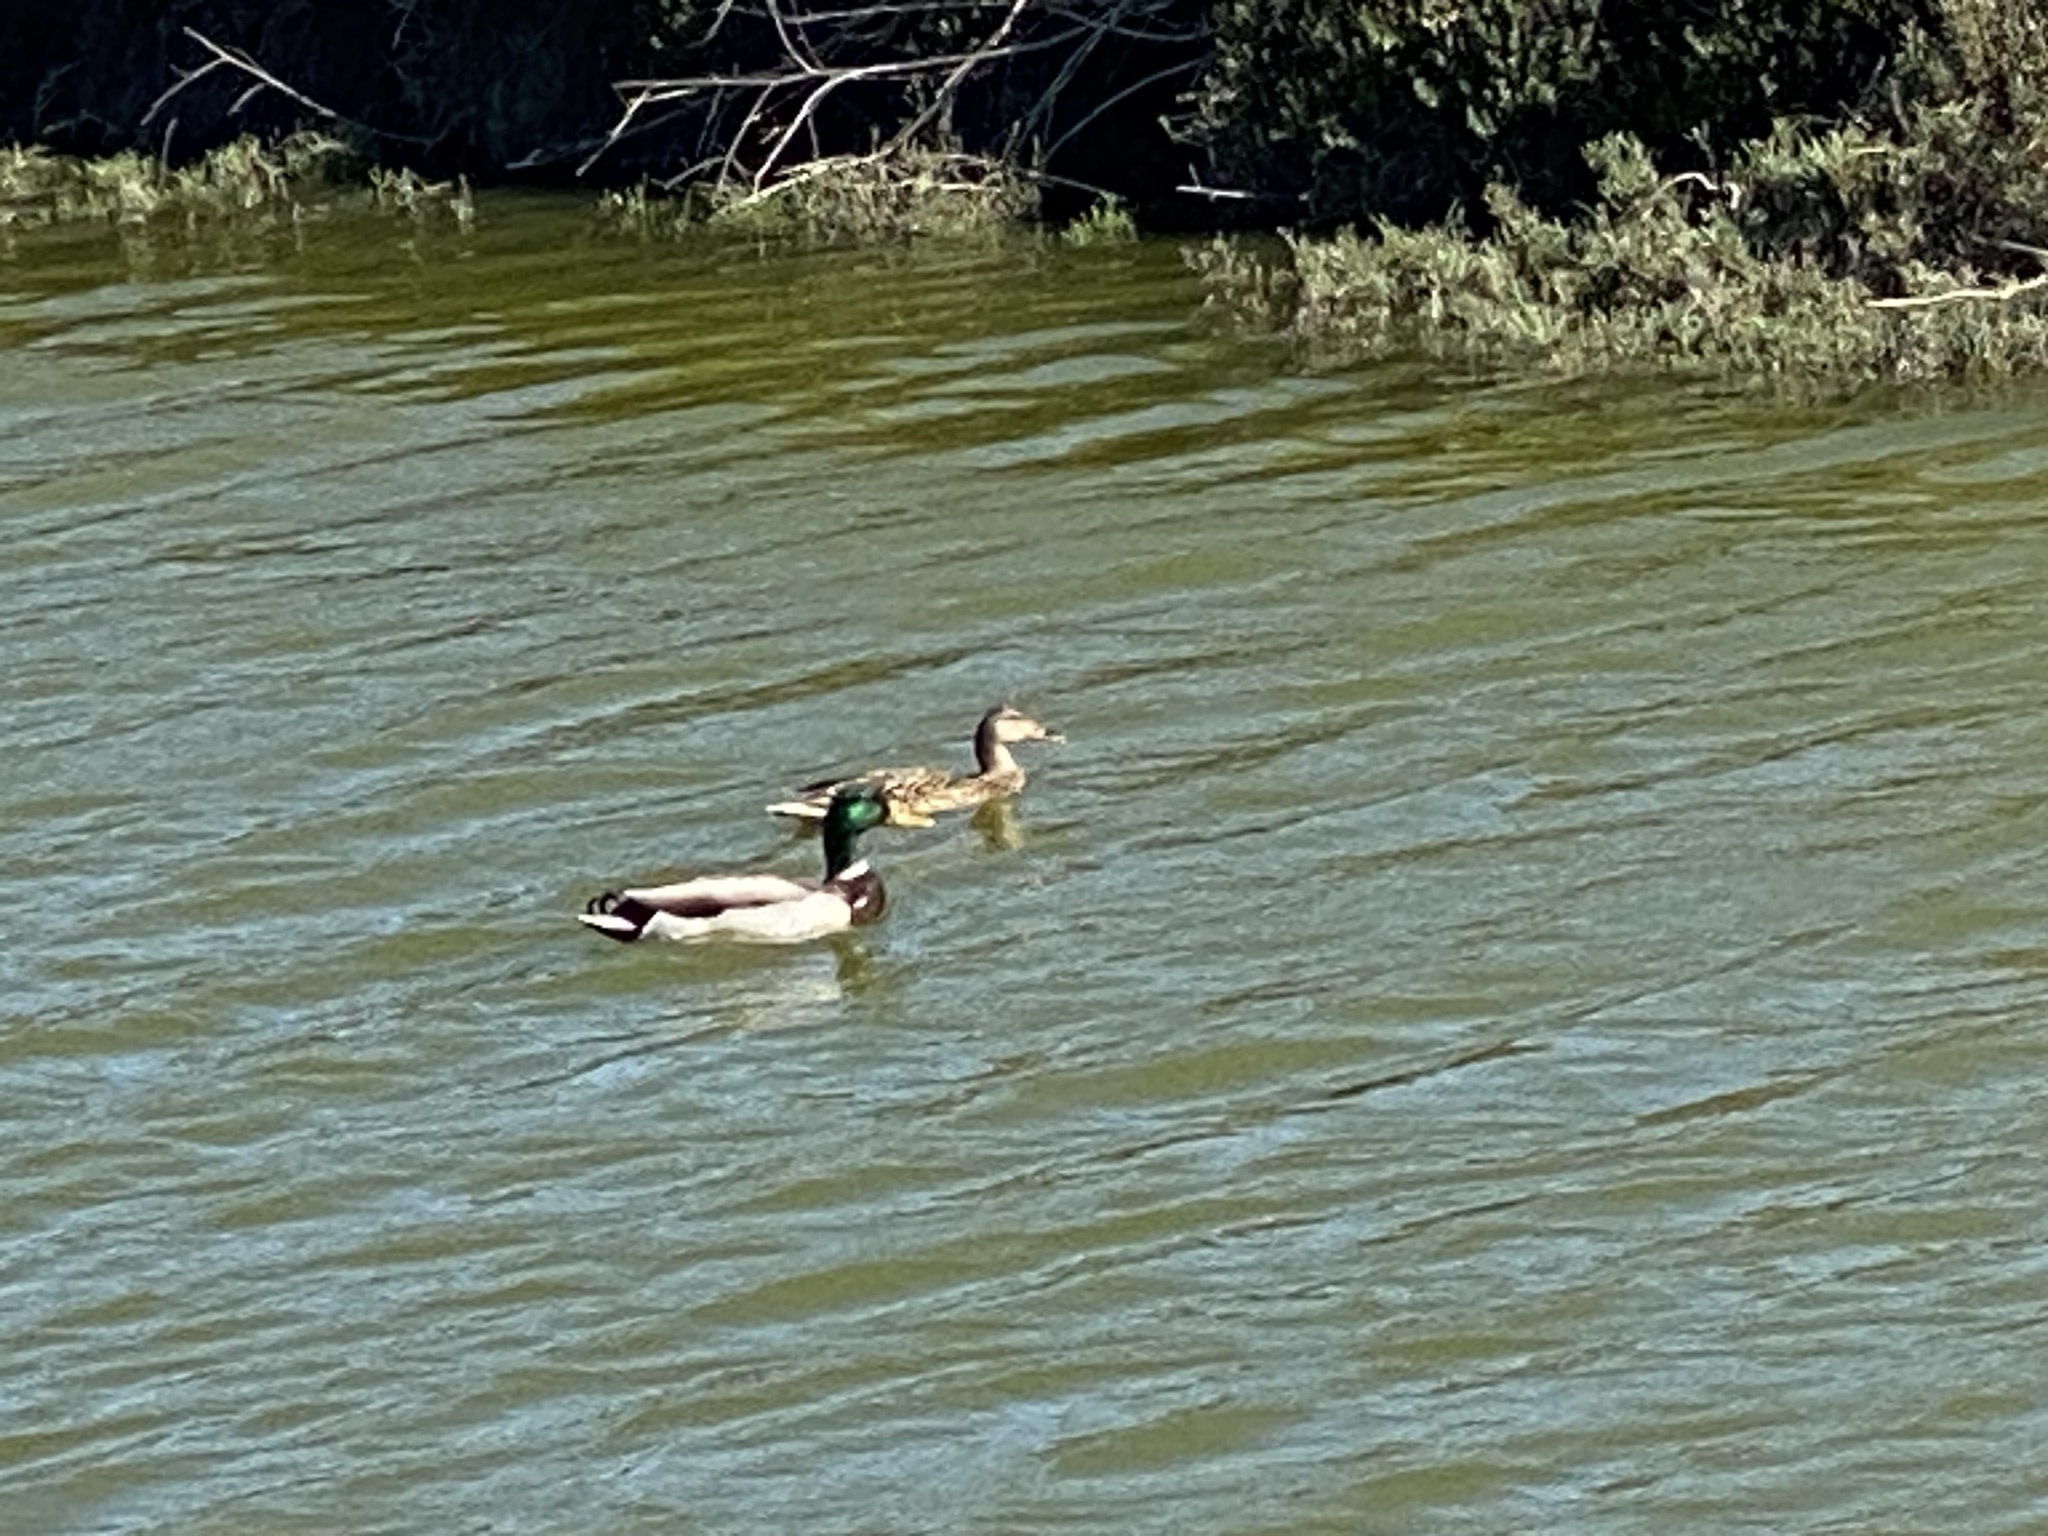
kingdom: Animalia
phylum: Chordata
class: Aves
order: Anseriformes
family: Anatidae
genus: Anas
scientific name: Anas platyrhynchos
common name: Mallard
